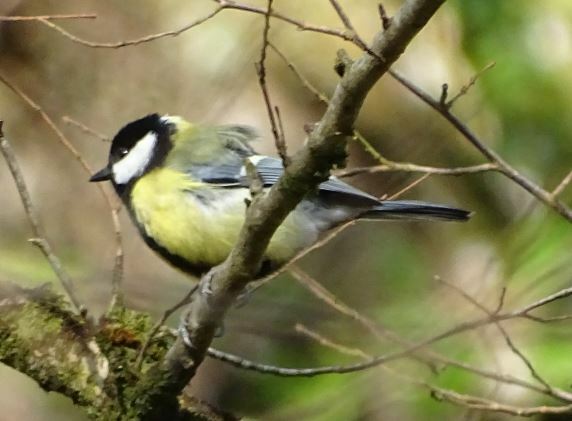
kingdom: Animalia
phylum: Chordata
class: Aves
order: Passeriformes
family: Paridae
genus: Parus
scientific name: Parus major
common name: Great tit
